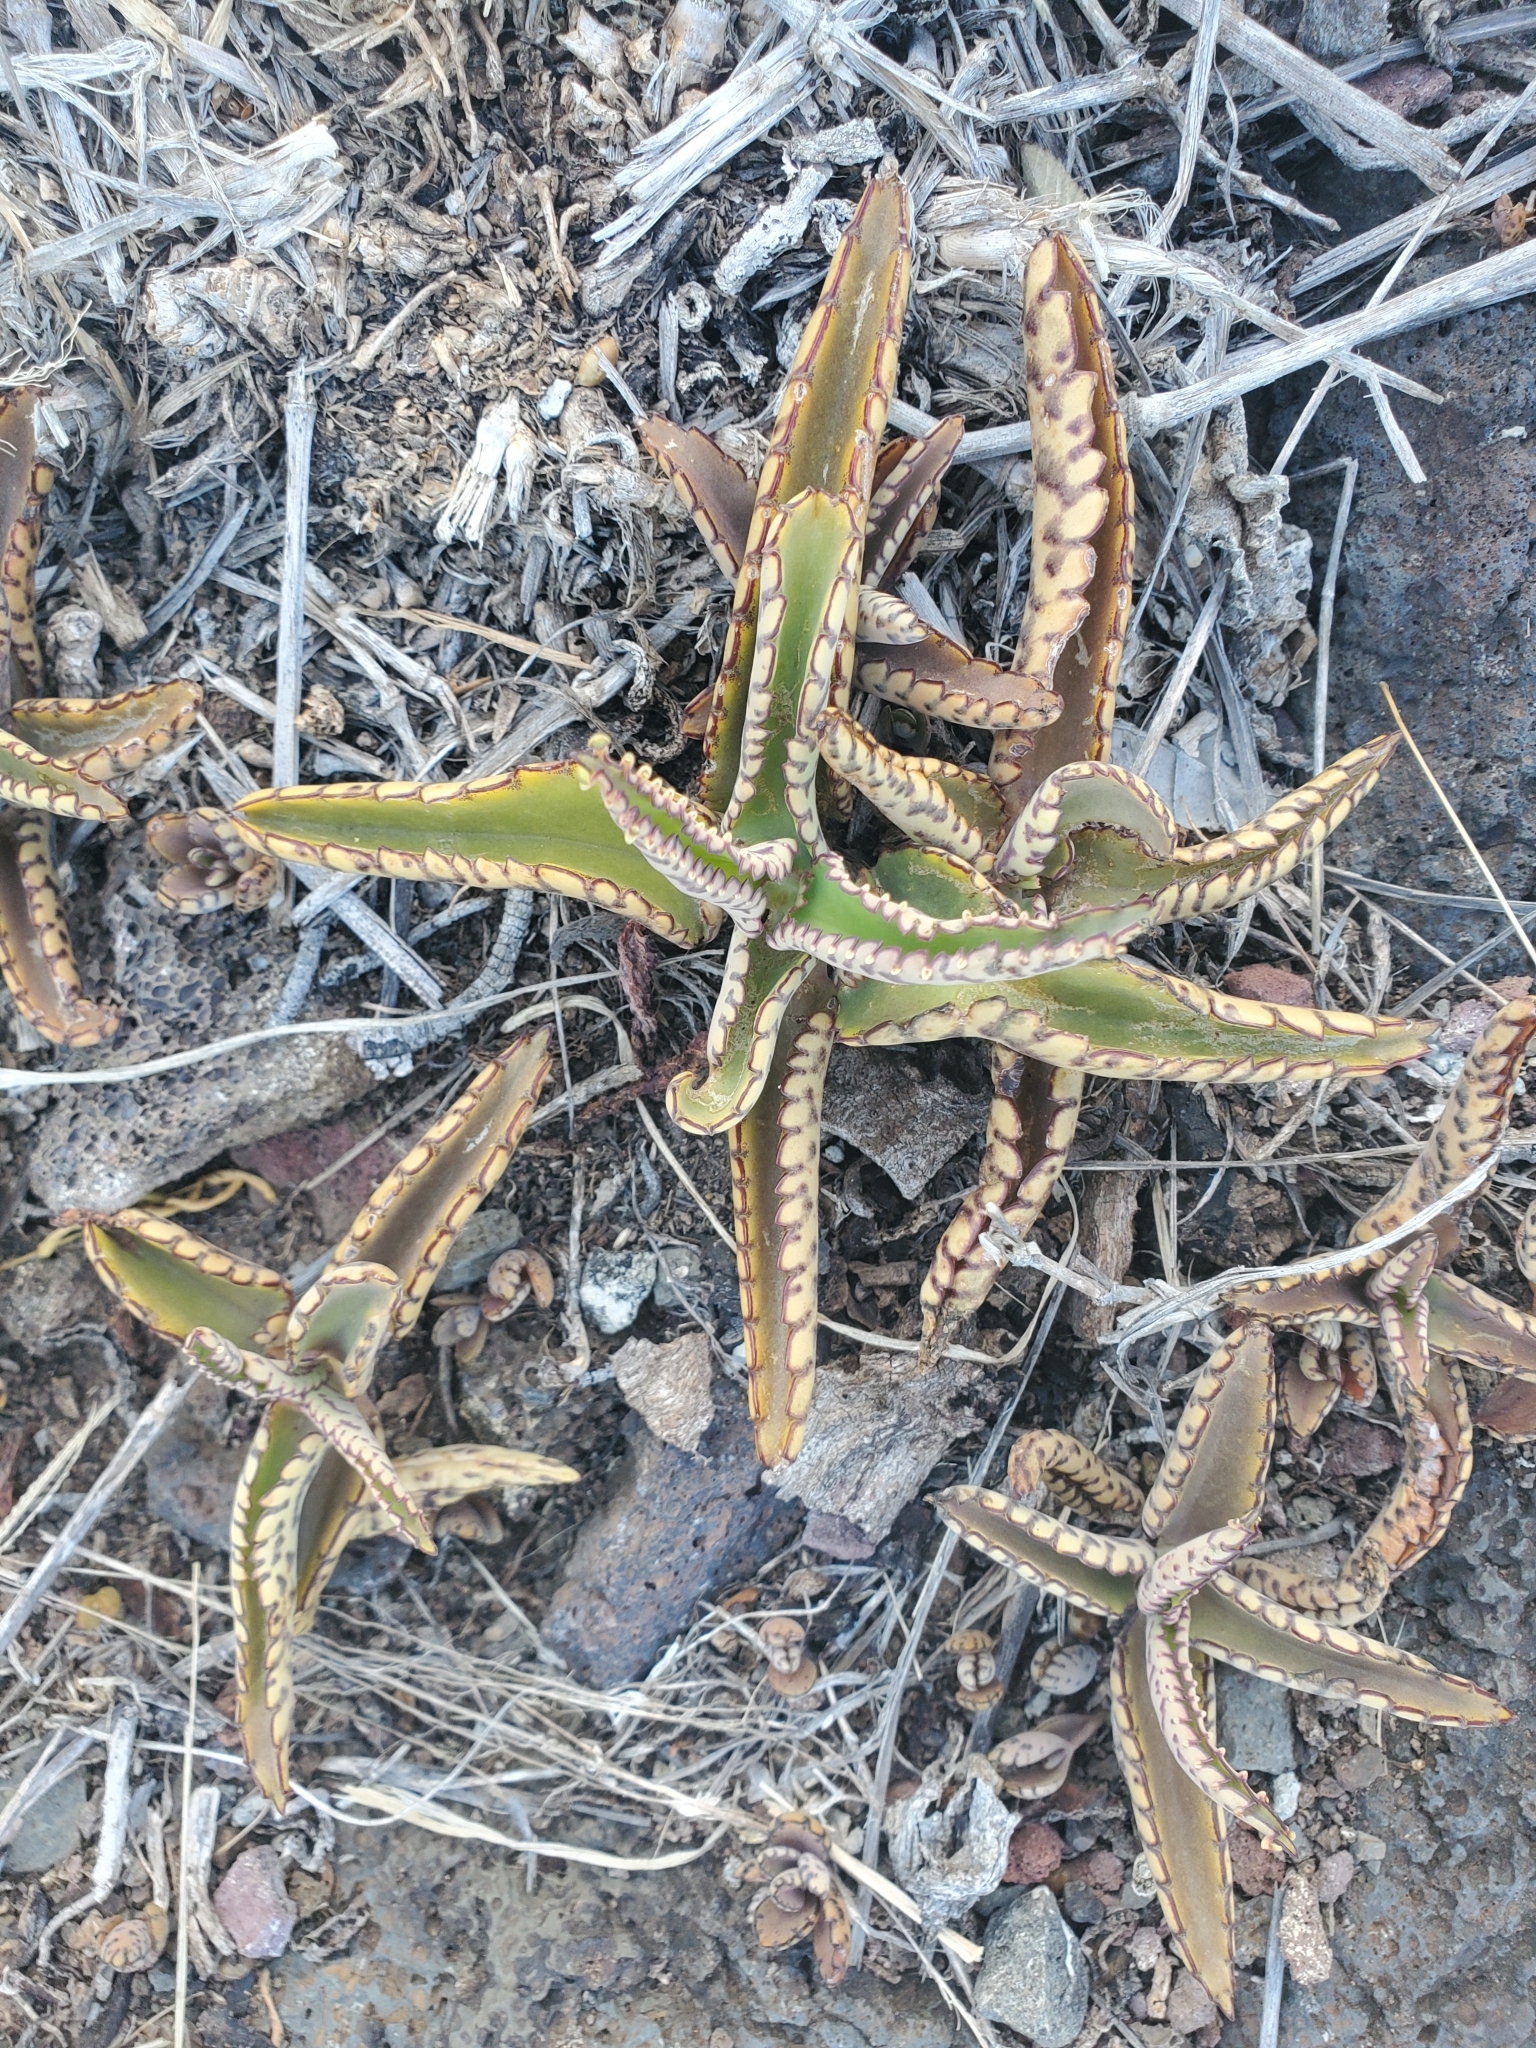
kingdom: Plantae
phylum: Tracheophyta
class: Magnoliopsida
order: Saxifragales
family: Crassulaceae
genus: Kalanchoe
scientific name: Kalanchoe daigremontiana
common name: Devil's backbone
